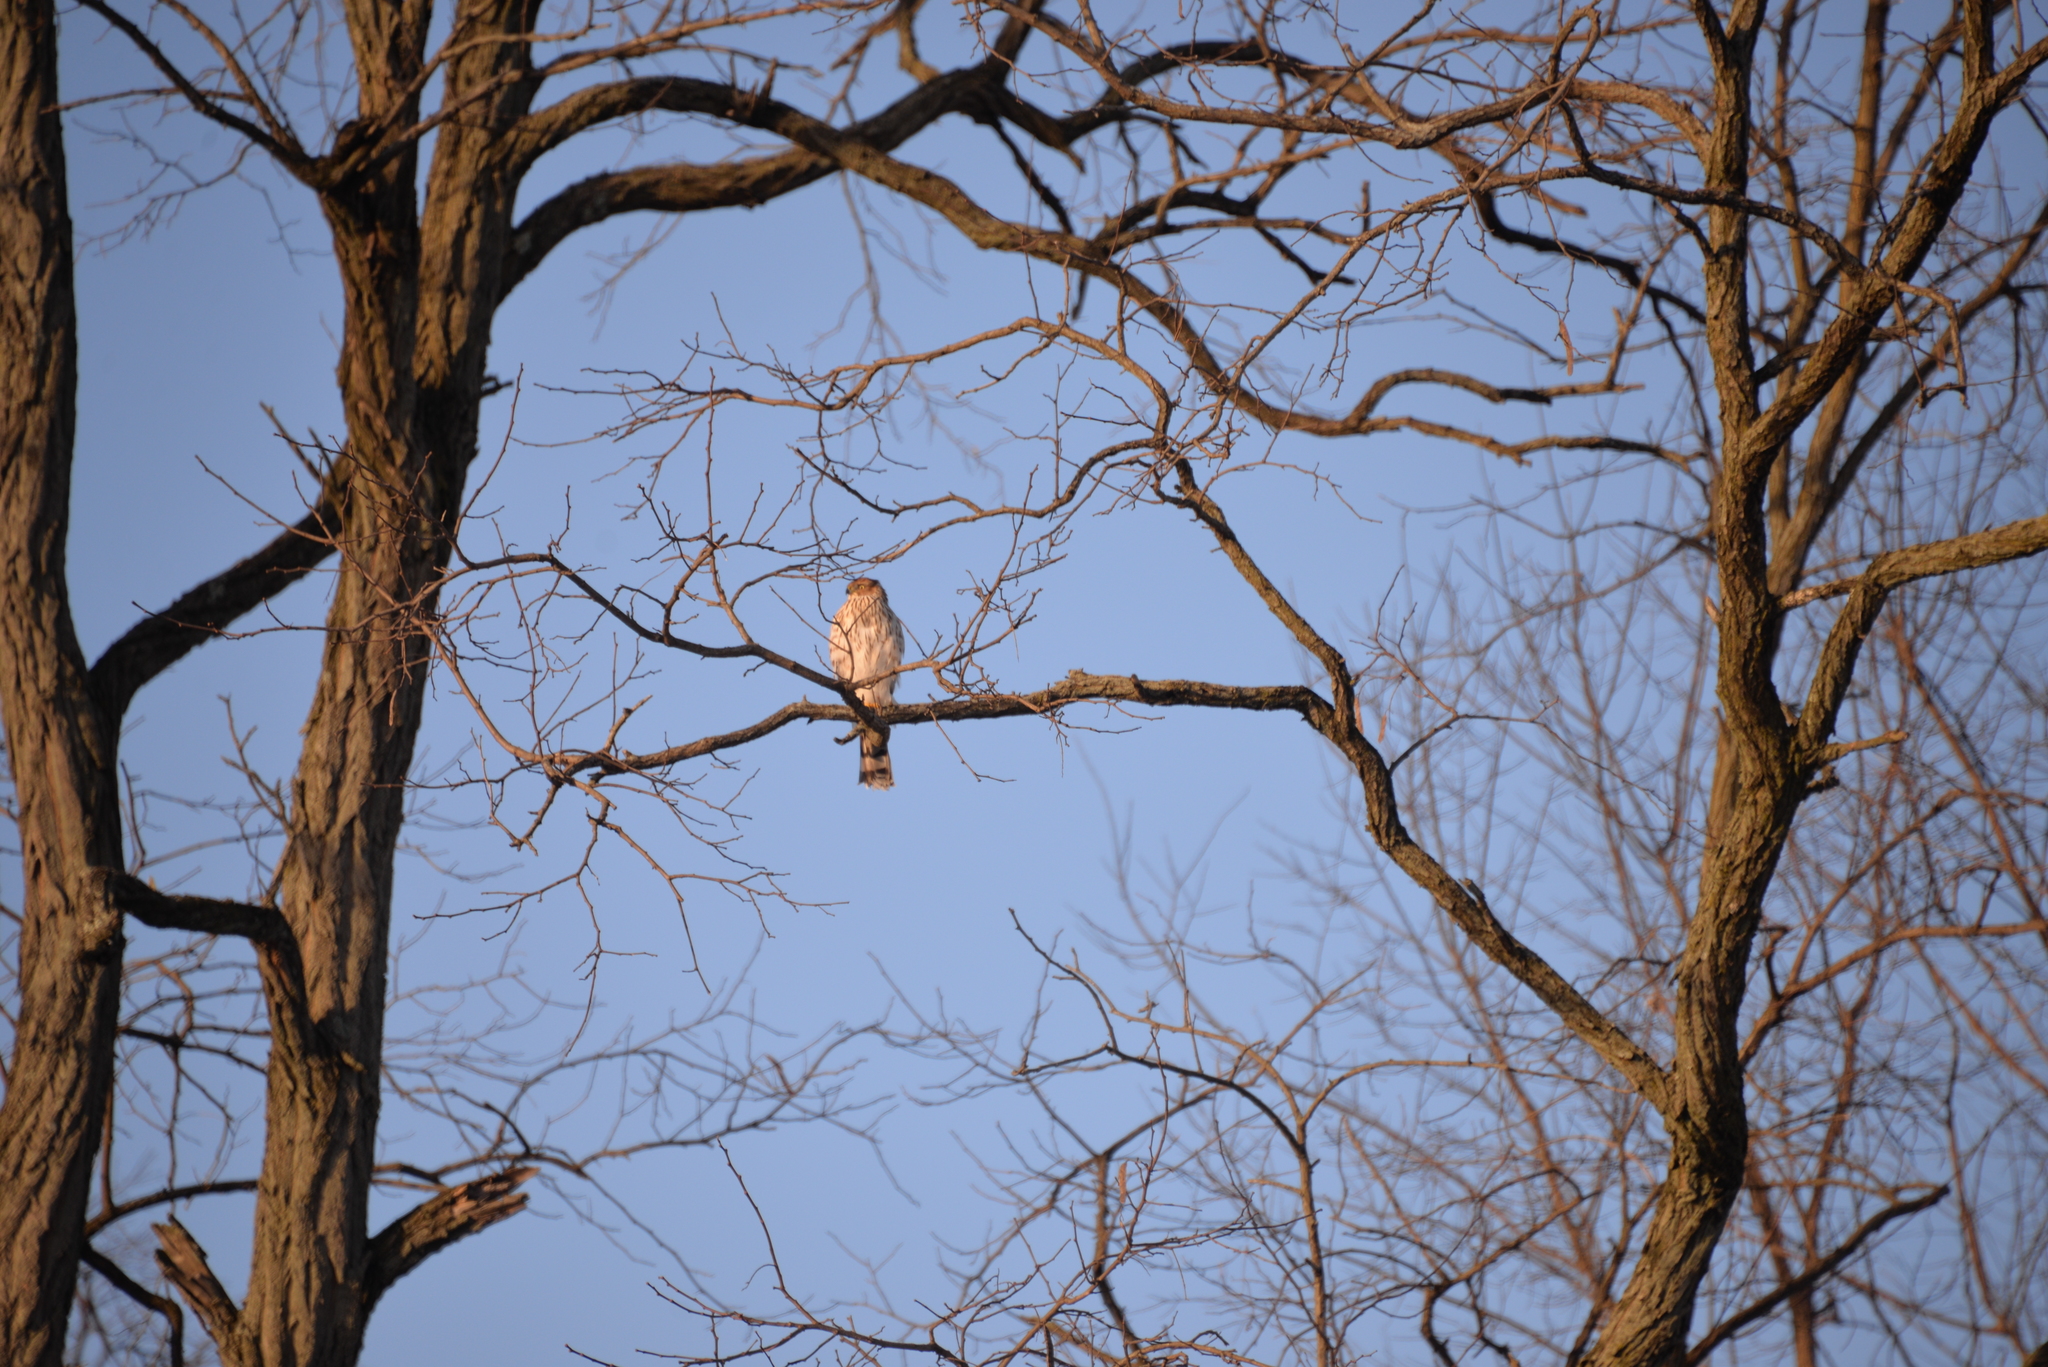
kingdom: Animalia
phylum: Chordata
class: Aves
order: Accipitriformes
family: Accipitridae
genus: Accipiter
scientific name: Accipiter cooperii
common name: Cooper's hawk
